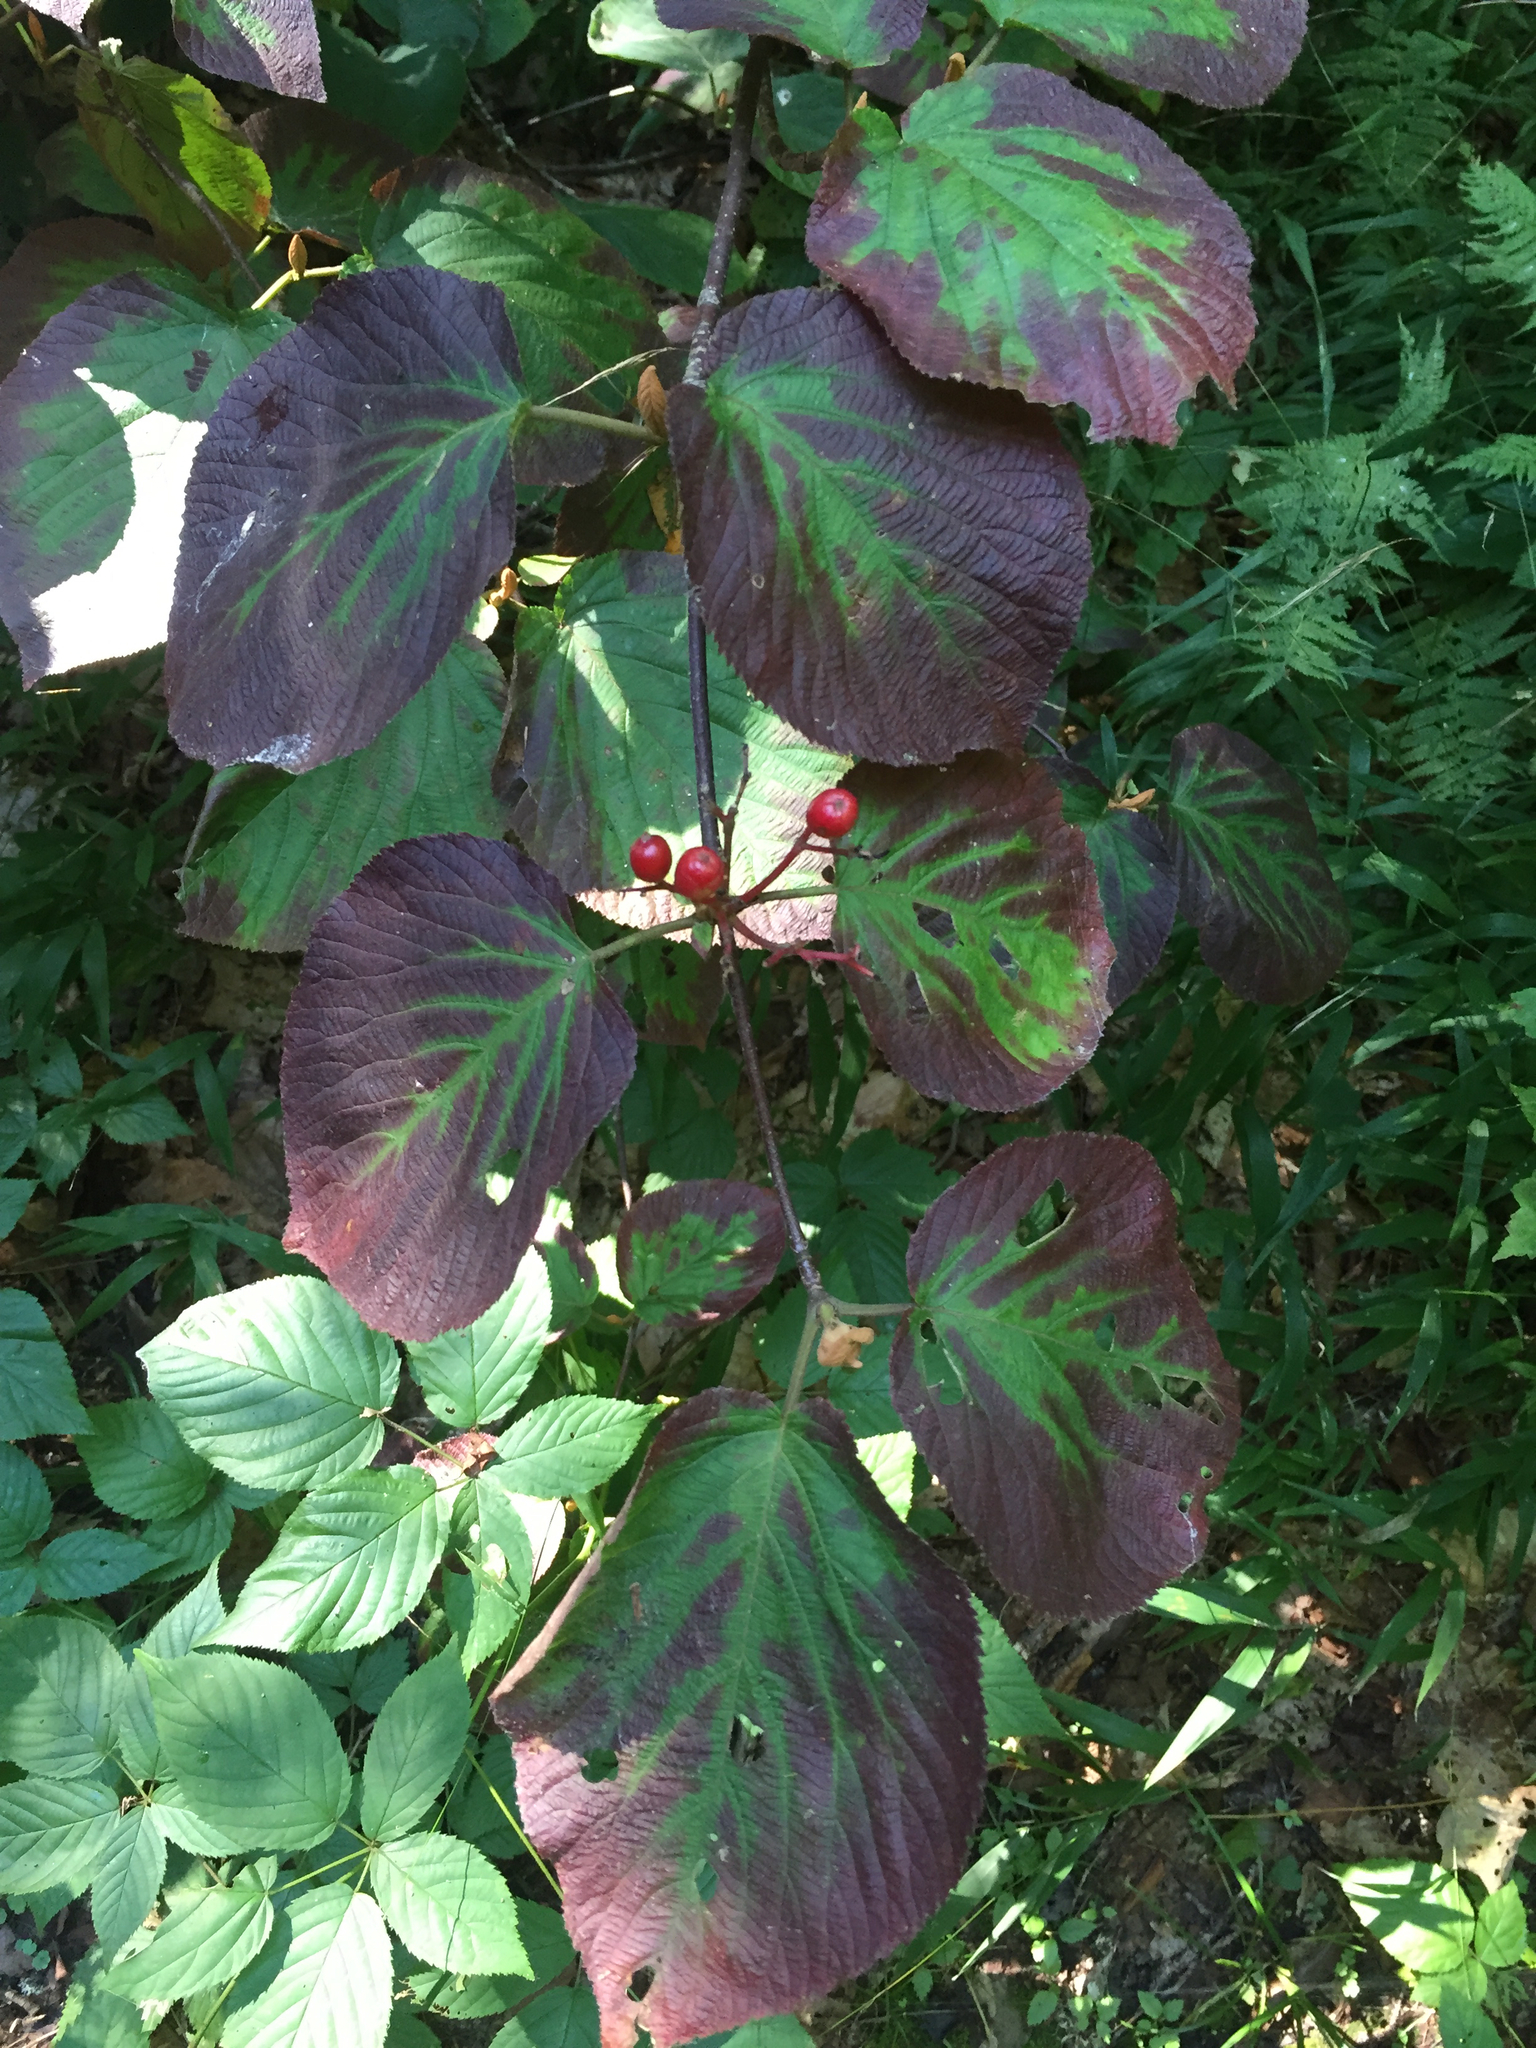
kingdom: Plantae
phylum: Tracheophyta
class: Magnoliopsida
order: Dipsacales
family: Viburnaceae
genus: Viburnum
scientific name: Viburnum lantanoides
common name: Hobblebush
